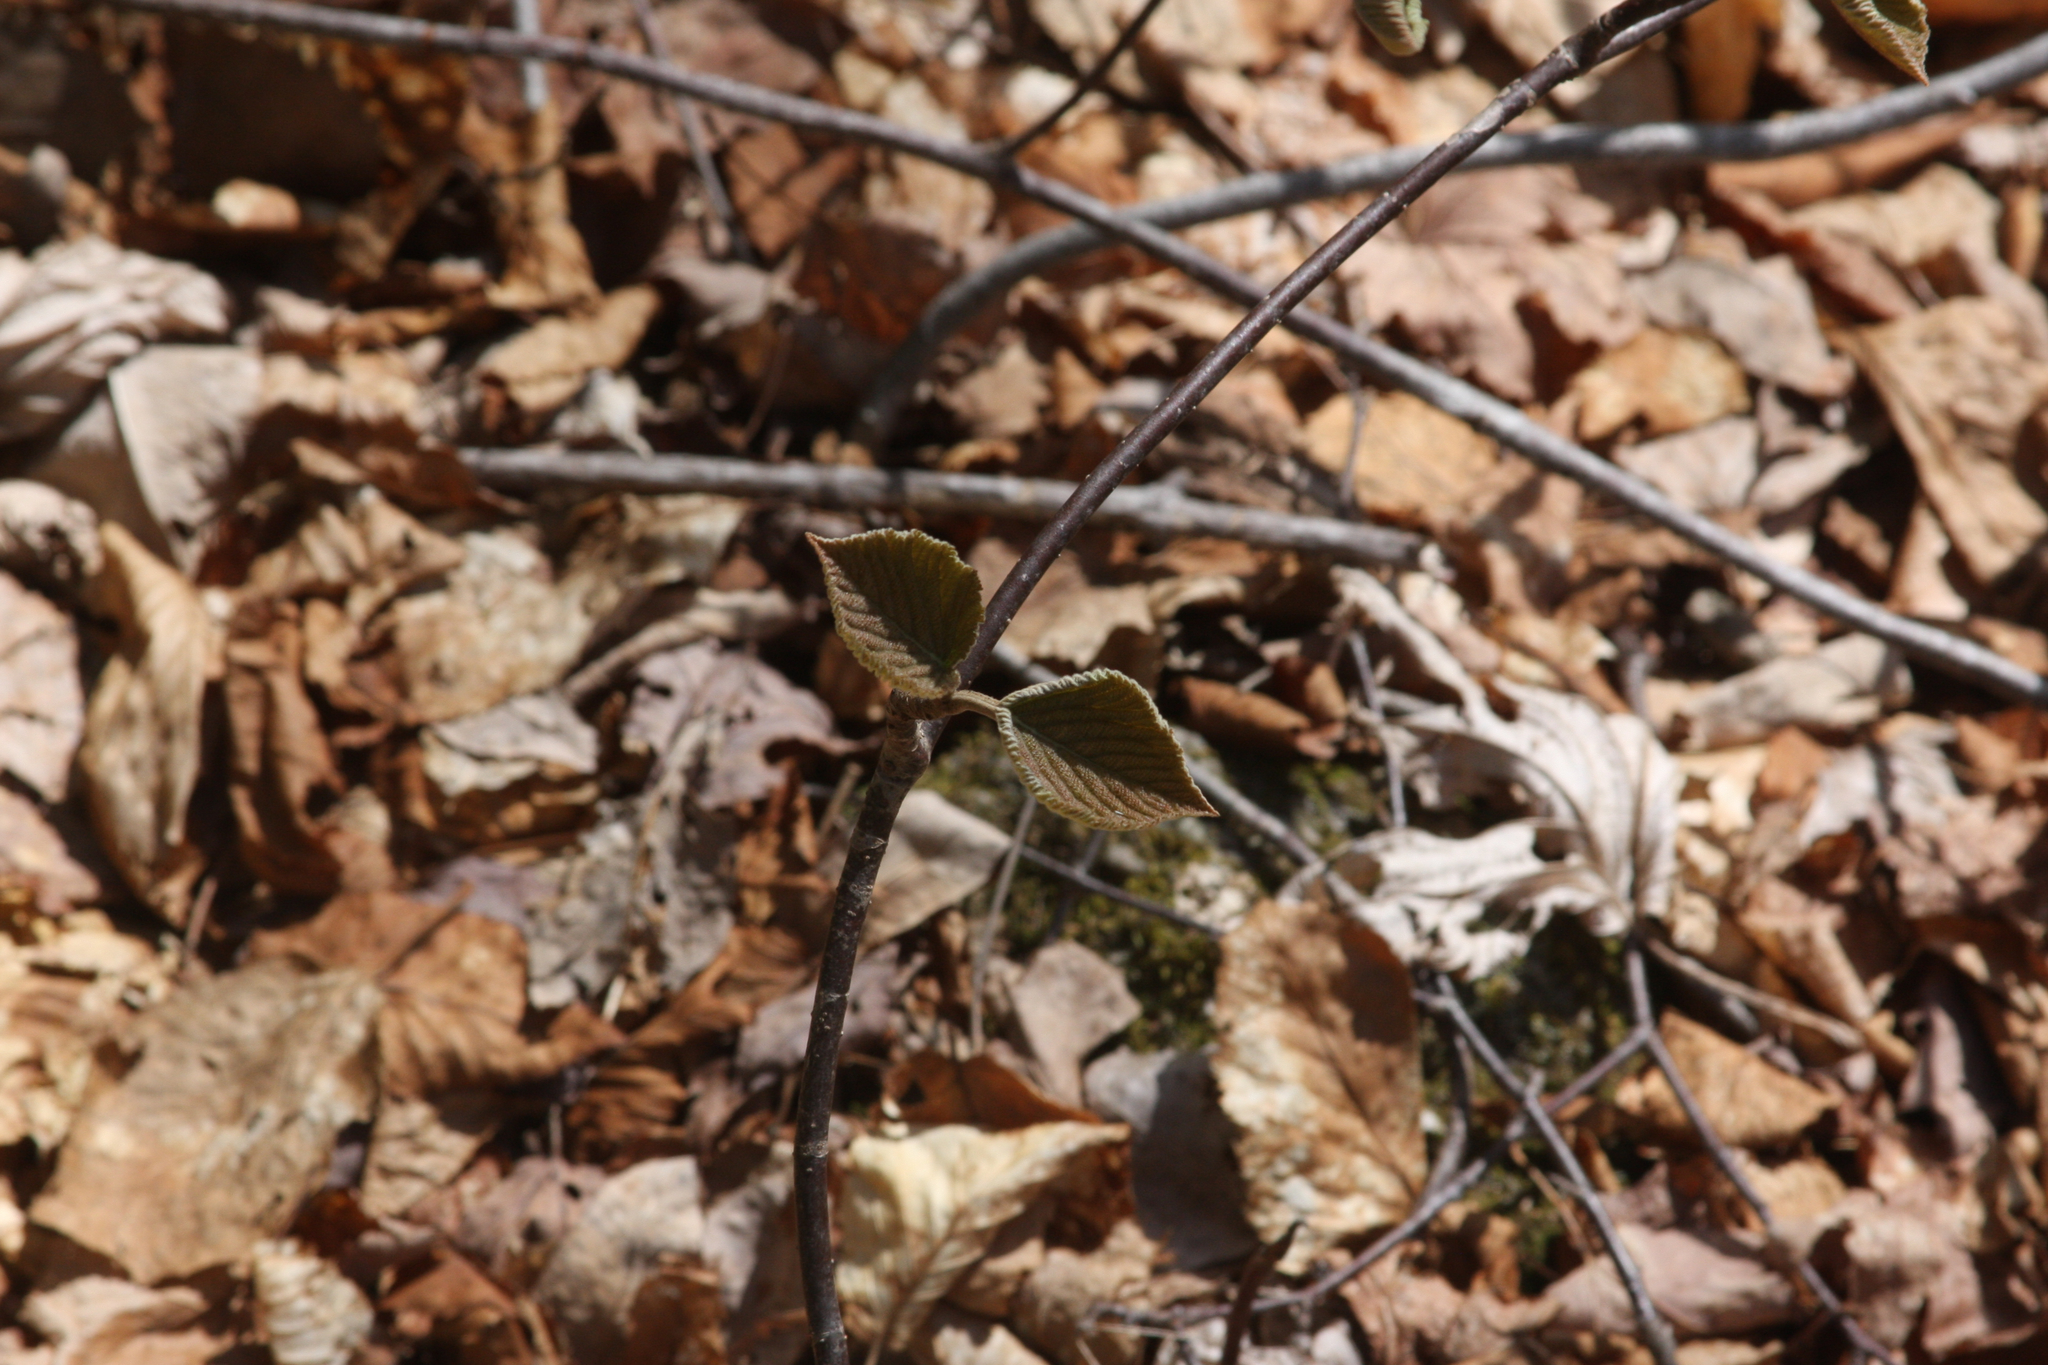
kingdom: Plantae
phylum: Tracheophyta
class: Magnoliopsida
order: Dipsacales
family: Viburnaceae
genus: Viburnum
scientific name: Viburnum lantanoides
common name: Hobblebush
